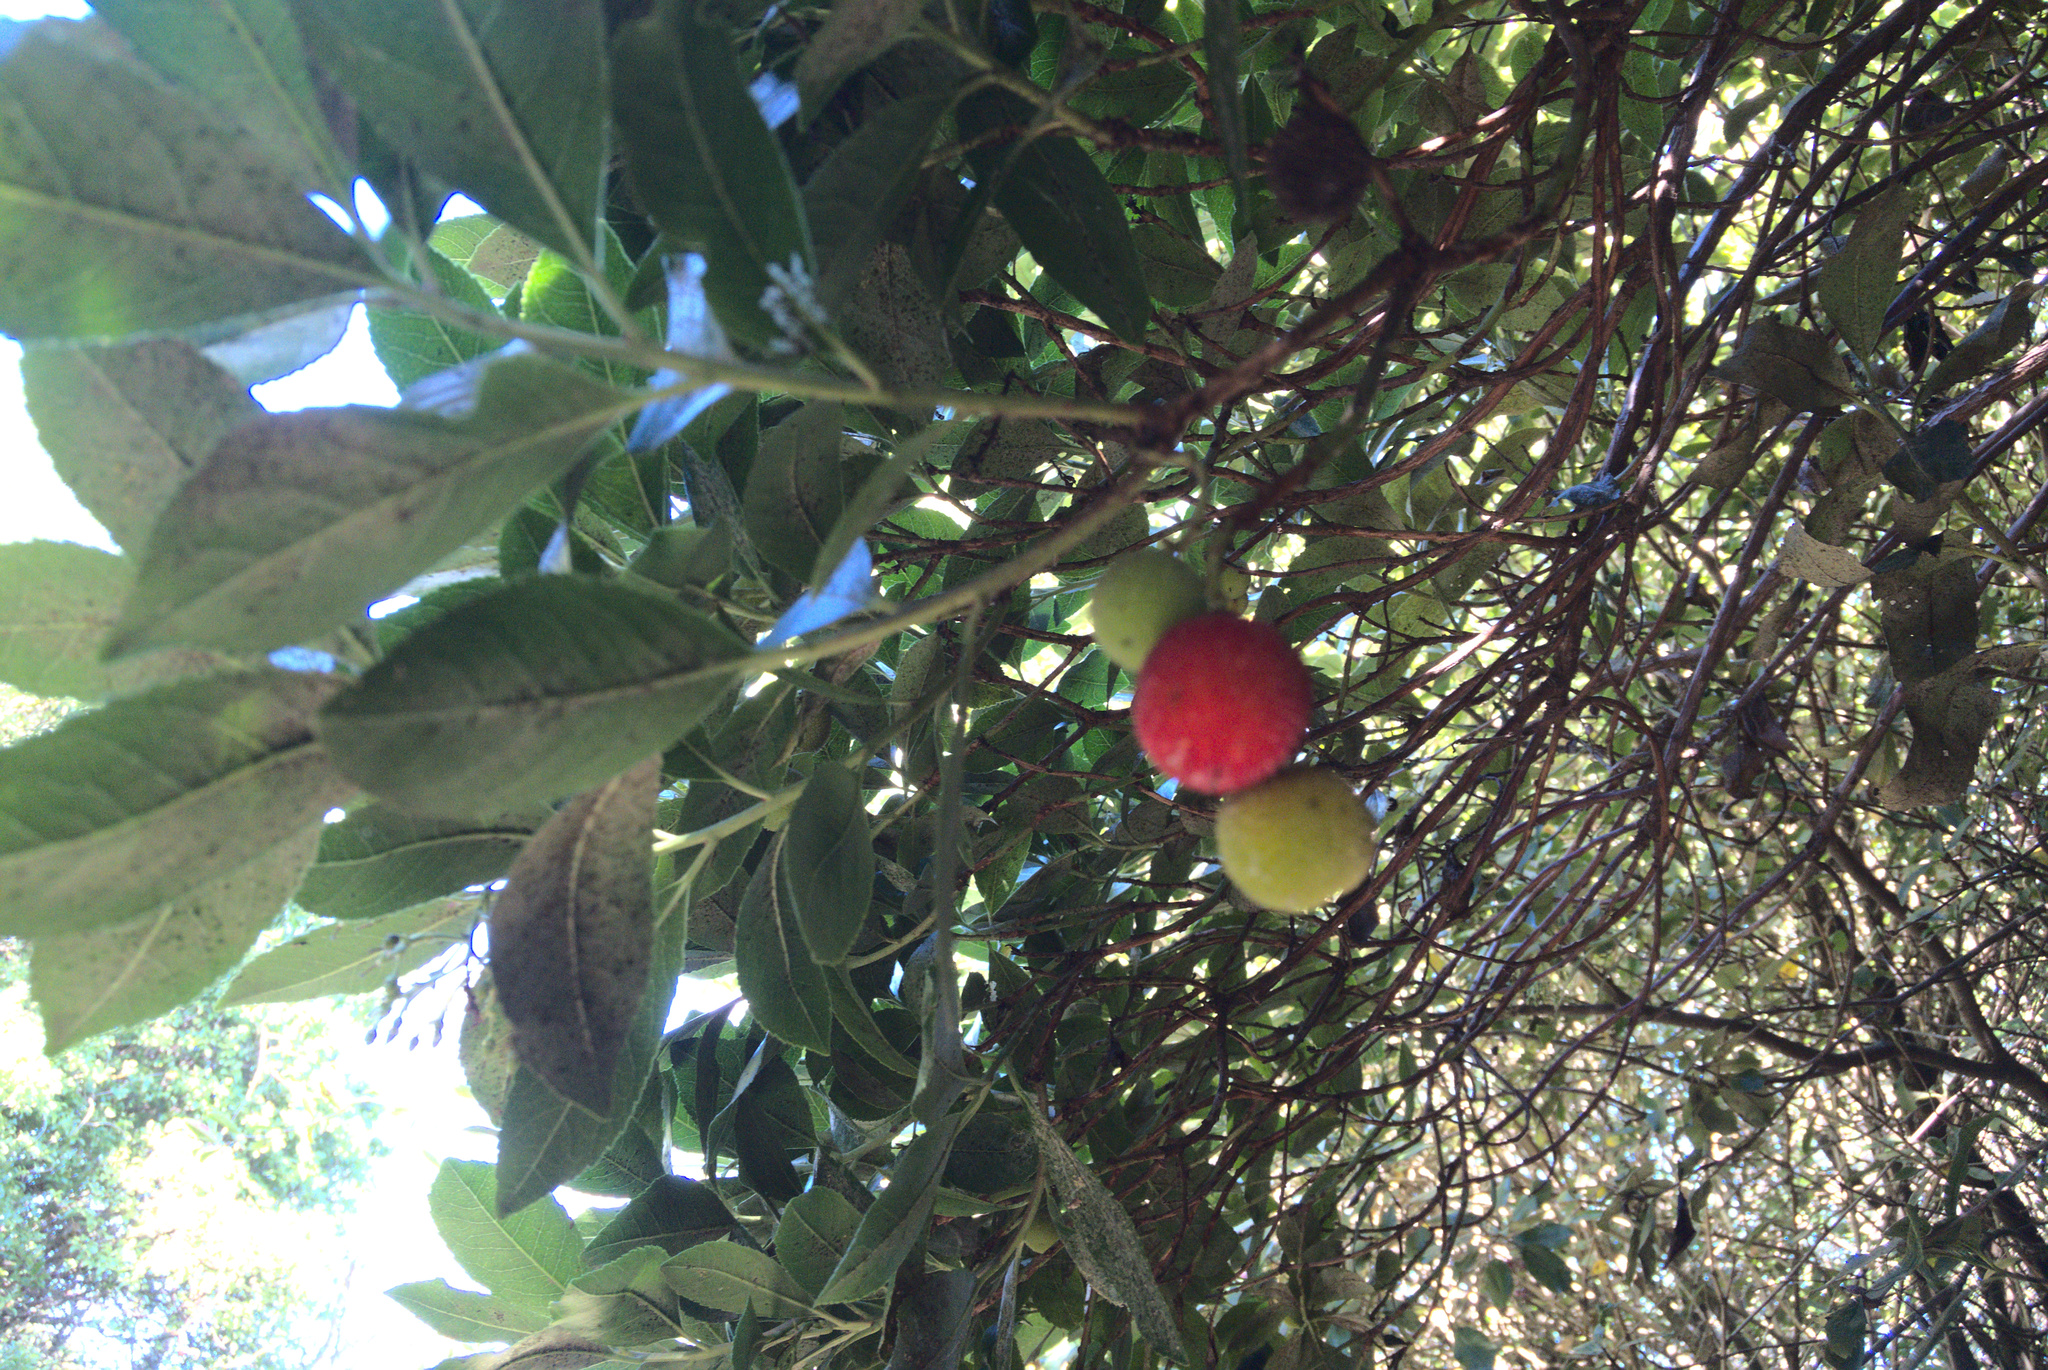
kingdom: Plantae
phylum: Tracheophyta
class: Magnoliopsida
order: Ericales
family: Ericaceae
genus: Arbutus
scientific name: Arbutus unedo
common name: Strawberry-tree
